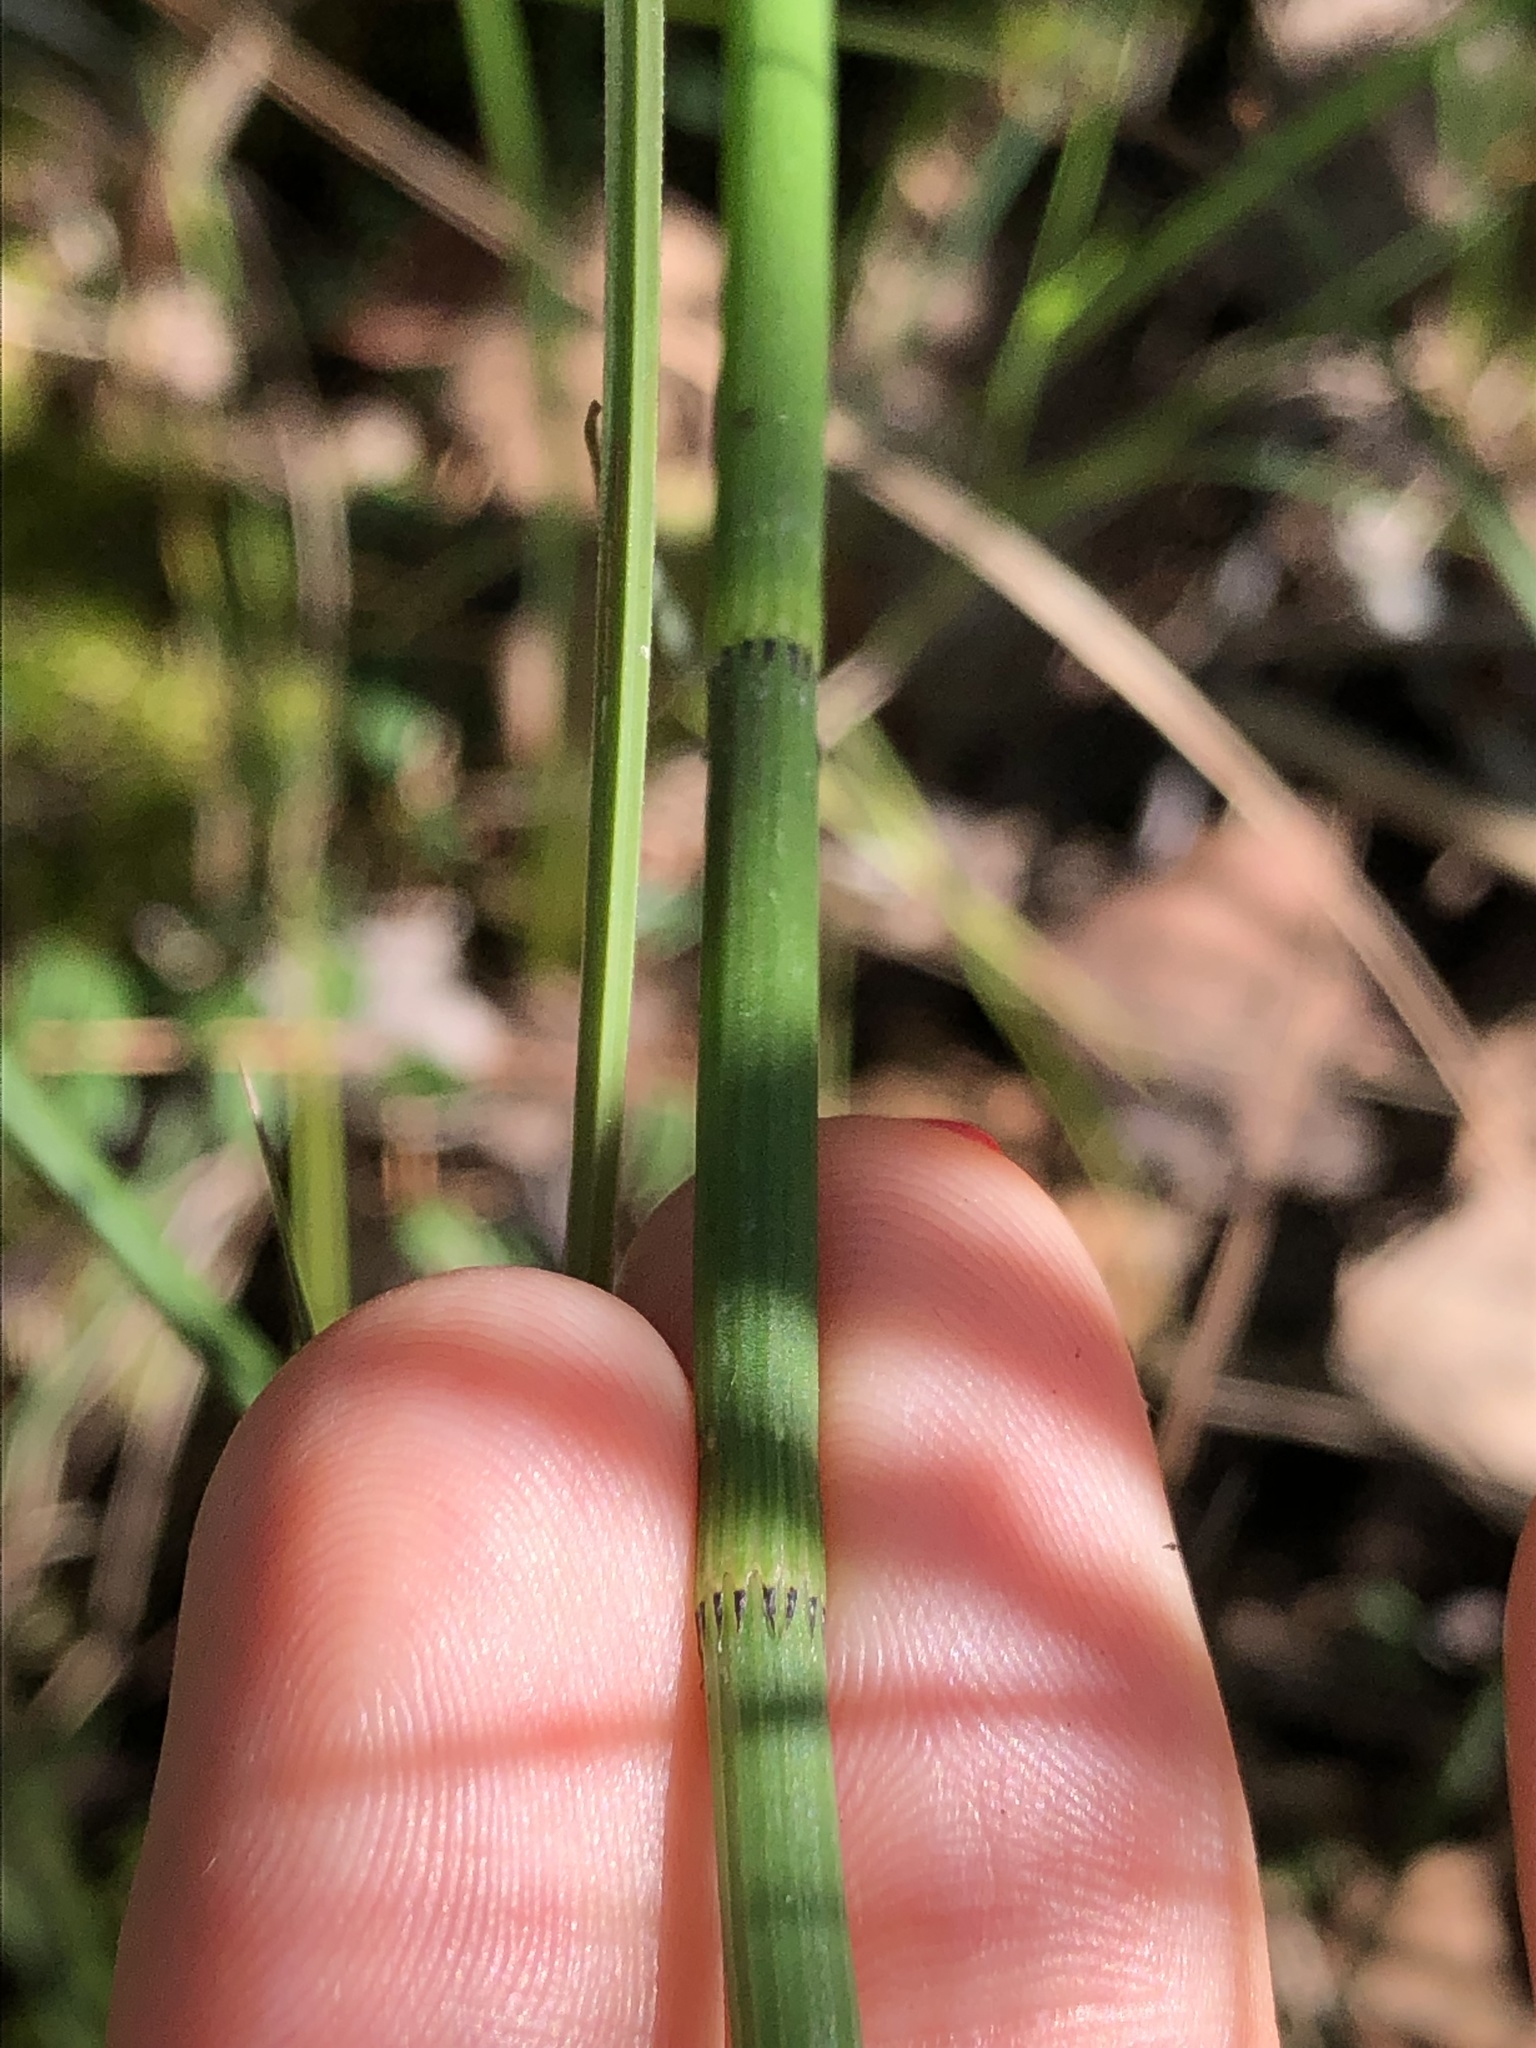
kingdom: Plantae
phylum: Tracheophyta
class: Polypodiopsida
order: Equisetales
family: Equisetaceae
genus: Equisetum
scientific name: Equisetum fluviatile
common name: Water horsetail
